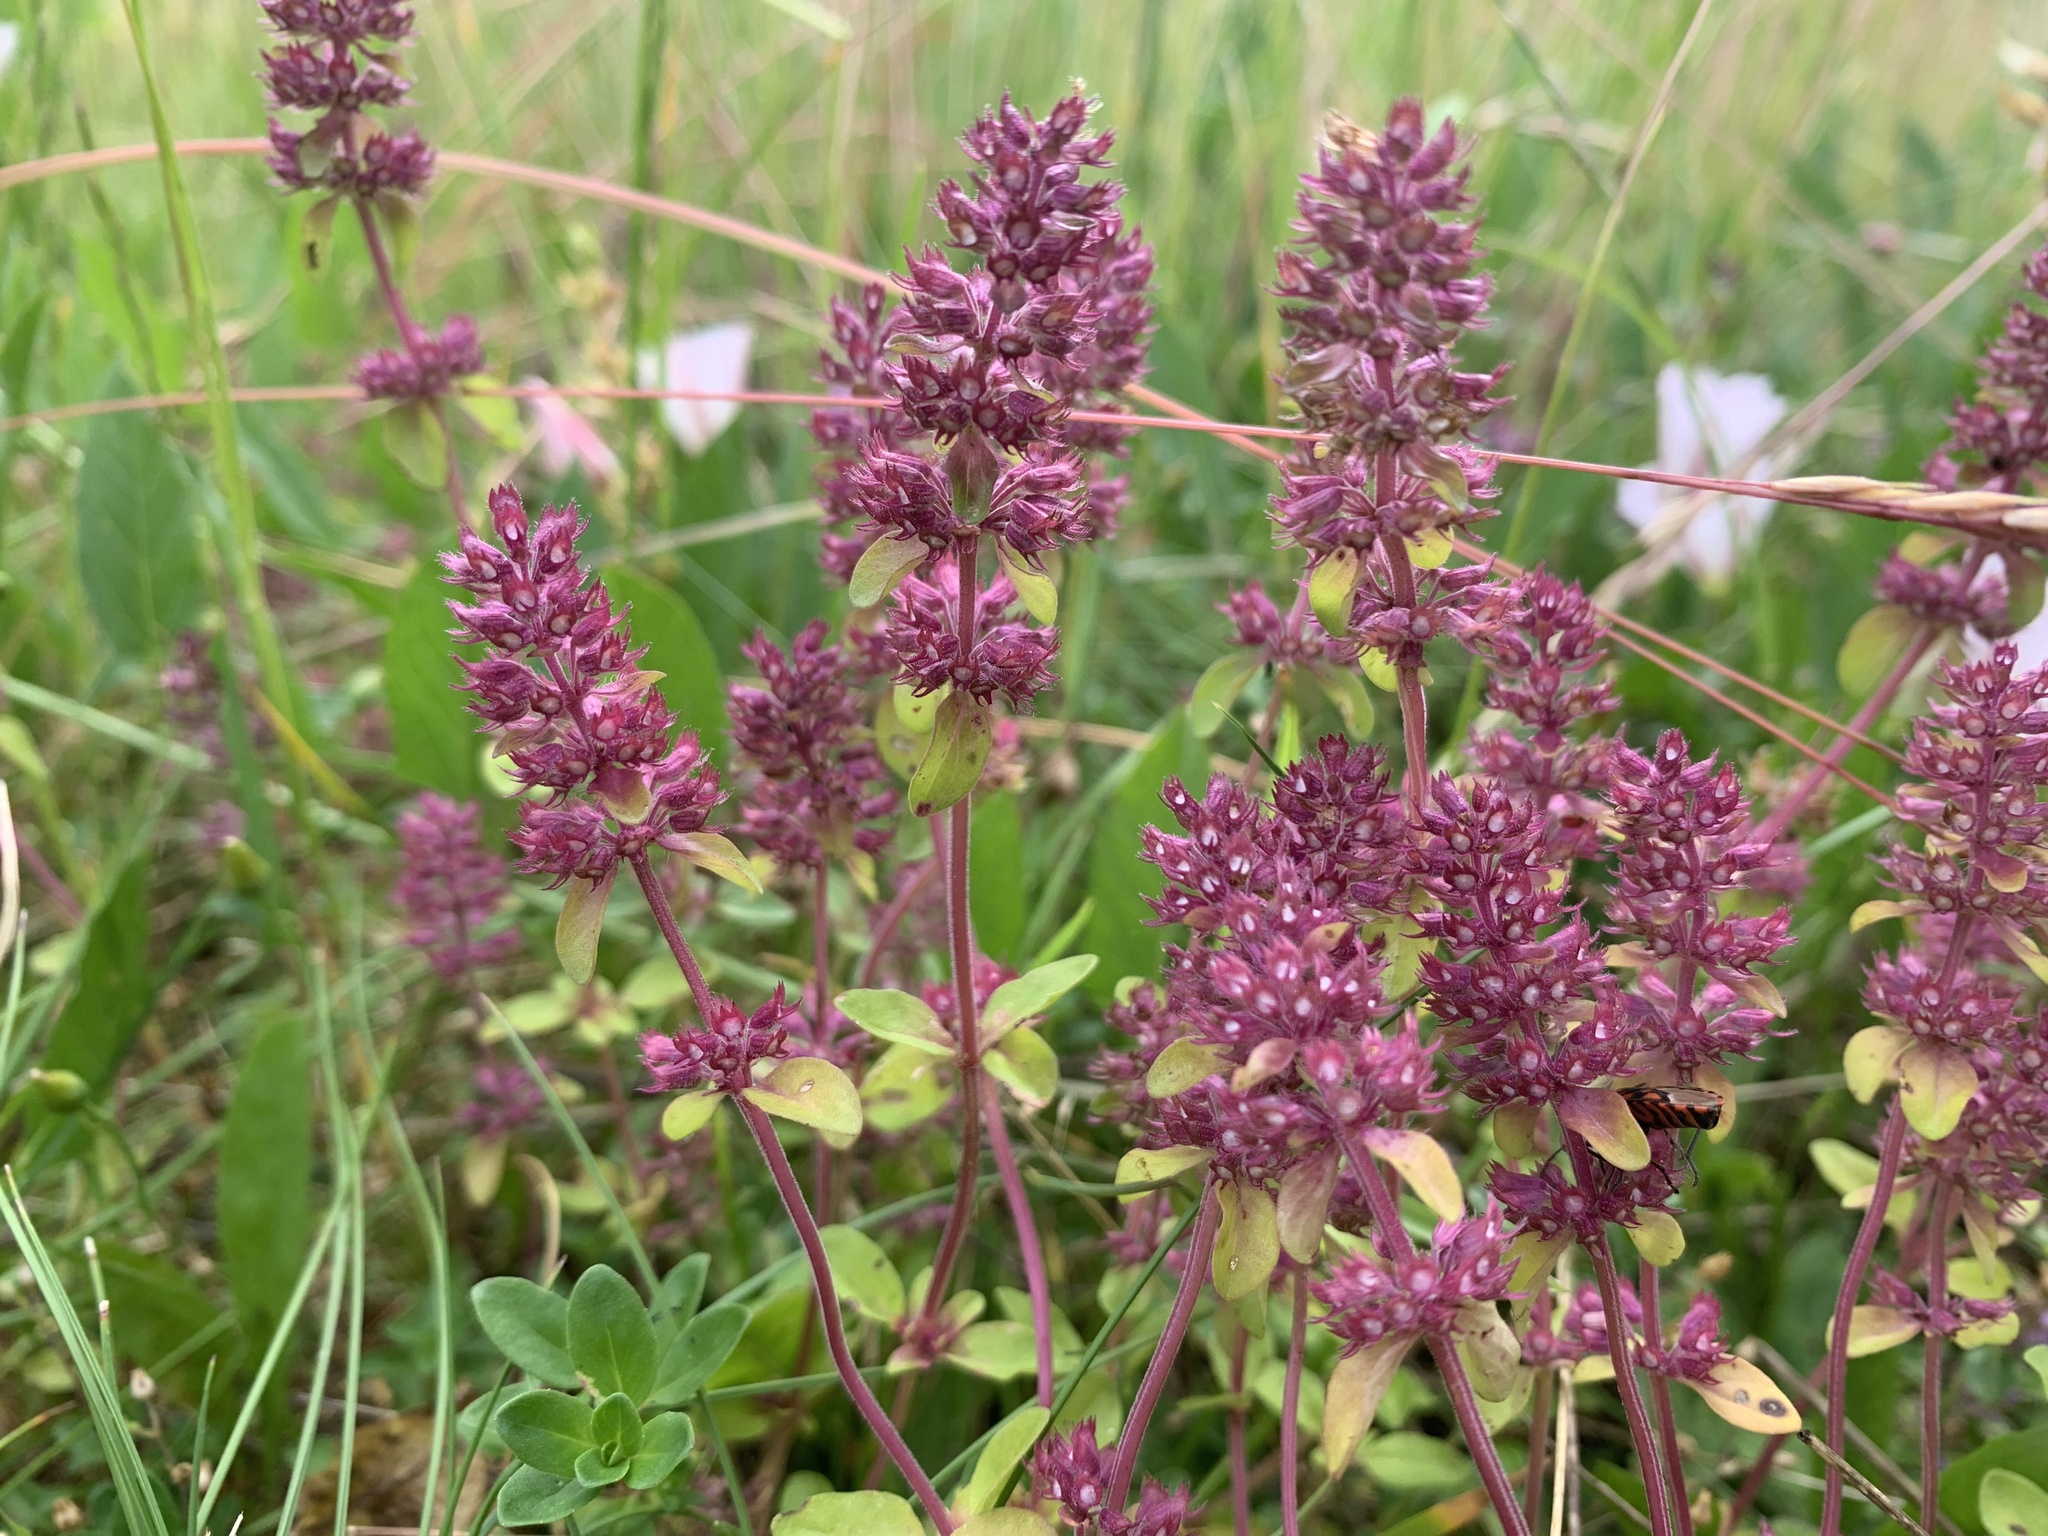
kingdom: Plantae
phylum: Tracheophyta
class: Magnoliopsida
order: Lamiales
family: Lamiaceae
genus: Thymus
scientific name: Thymus pulegioides
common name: Large thyme
